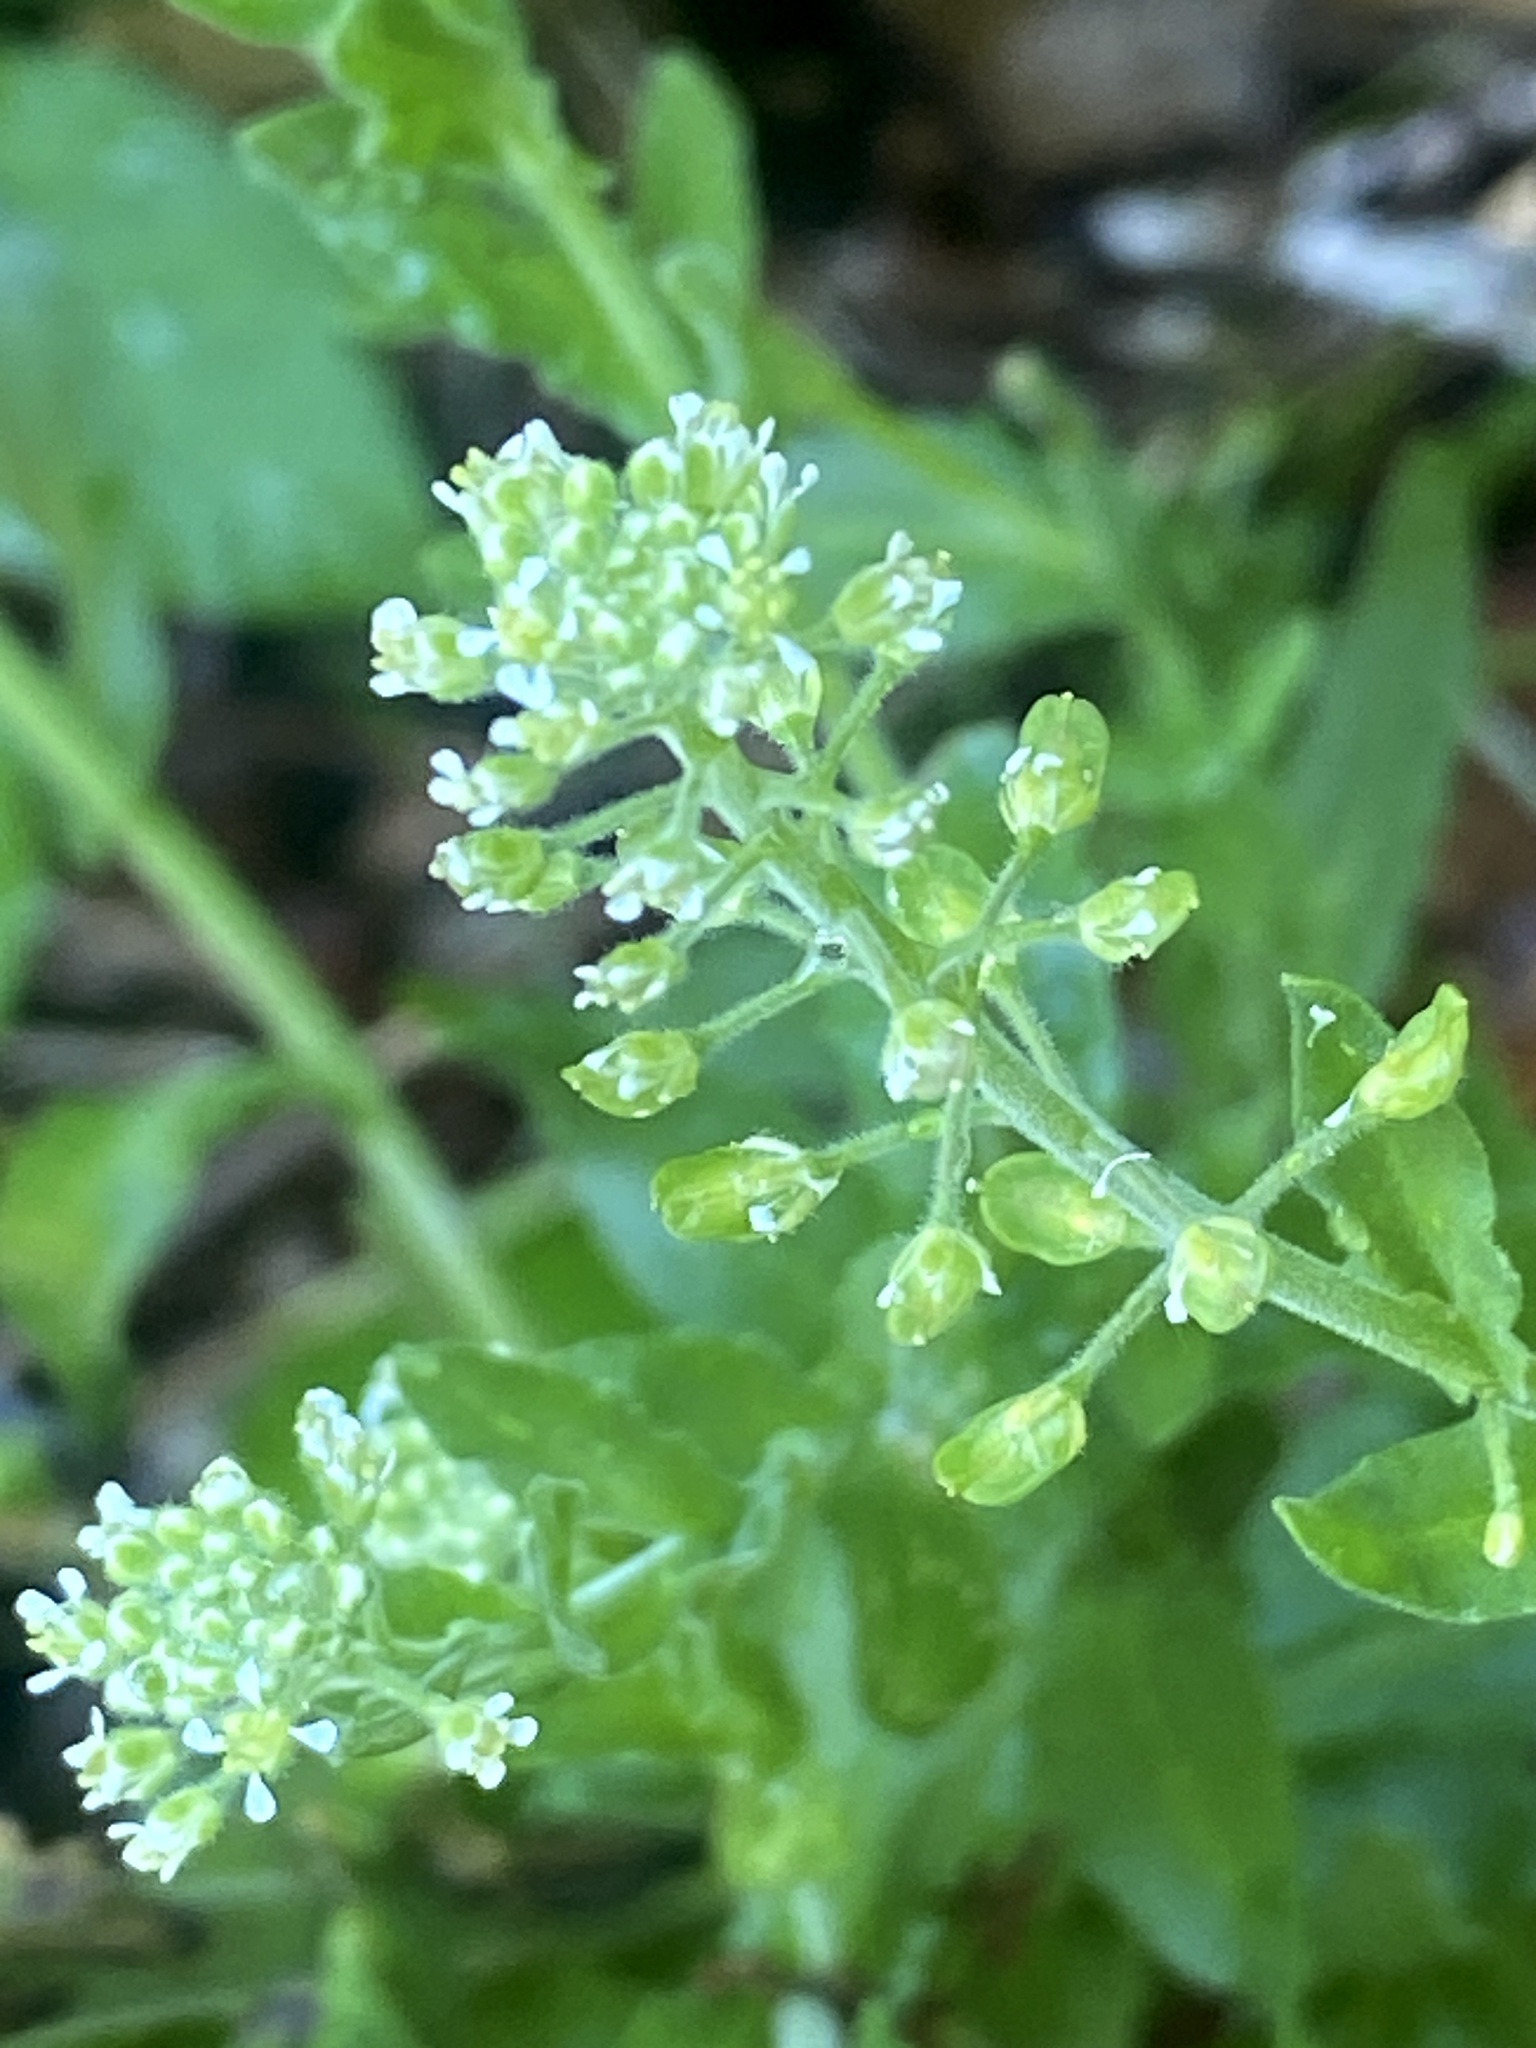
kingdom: Plantae
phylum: Tracheophyta
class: Magnoliopsida
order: Brassicales
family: Brassicaceae
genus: Lepidium
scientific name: Lepidium campestre
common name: Field pepperwort
